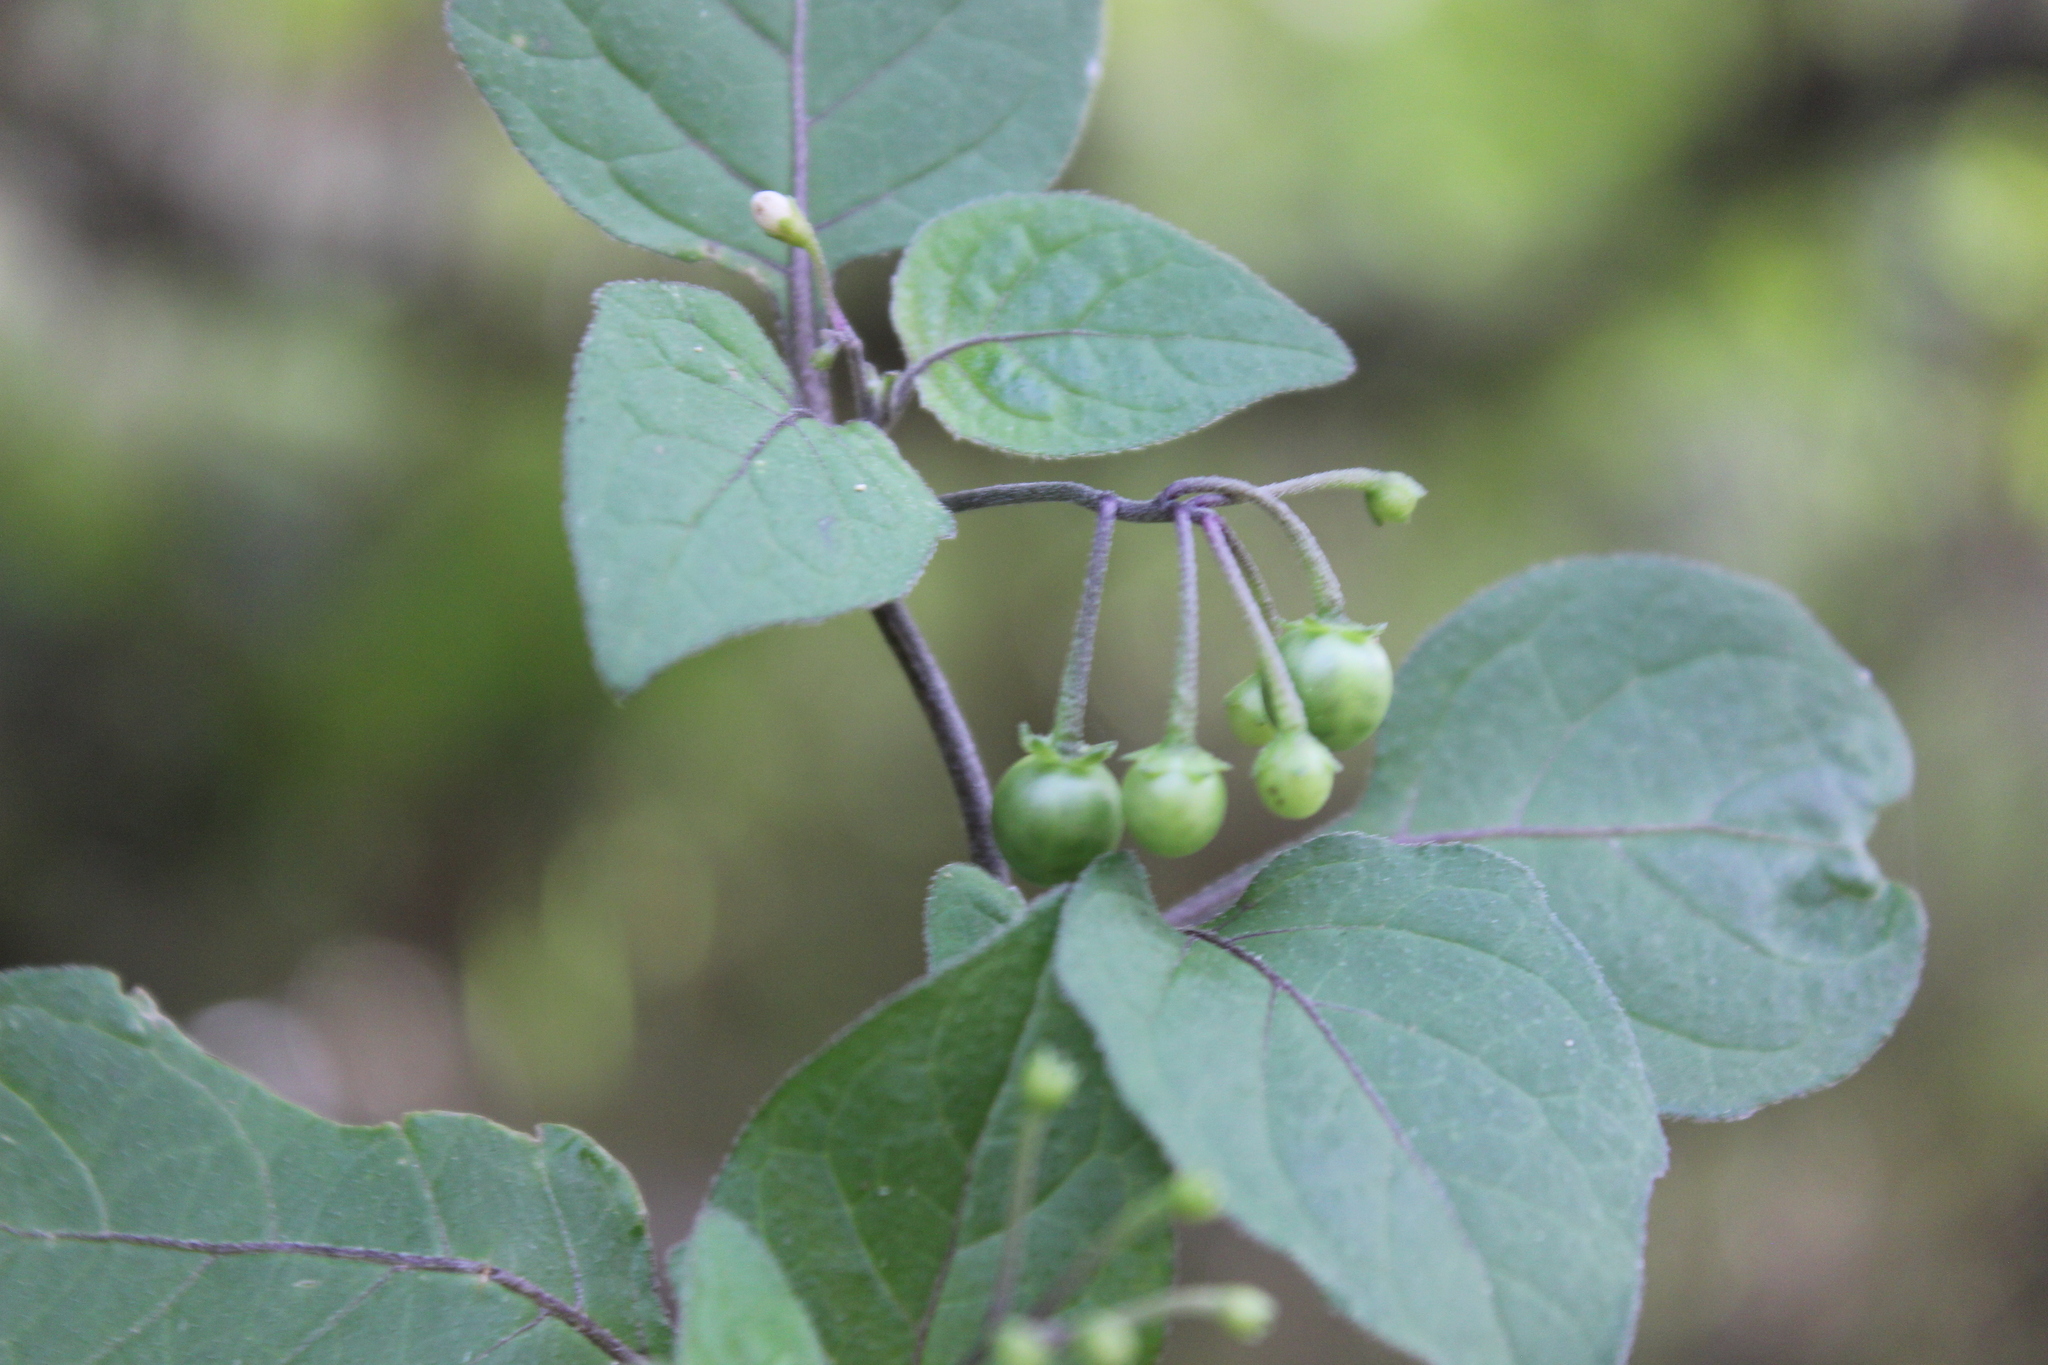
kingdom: Plantae
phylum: Tracheophyta
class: Magnoliopsida
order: Solanales
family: Solanaceae
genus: Solanum
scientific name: Solanum nigrum
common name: Black nightshade
